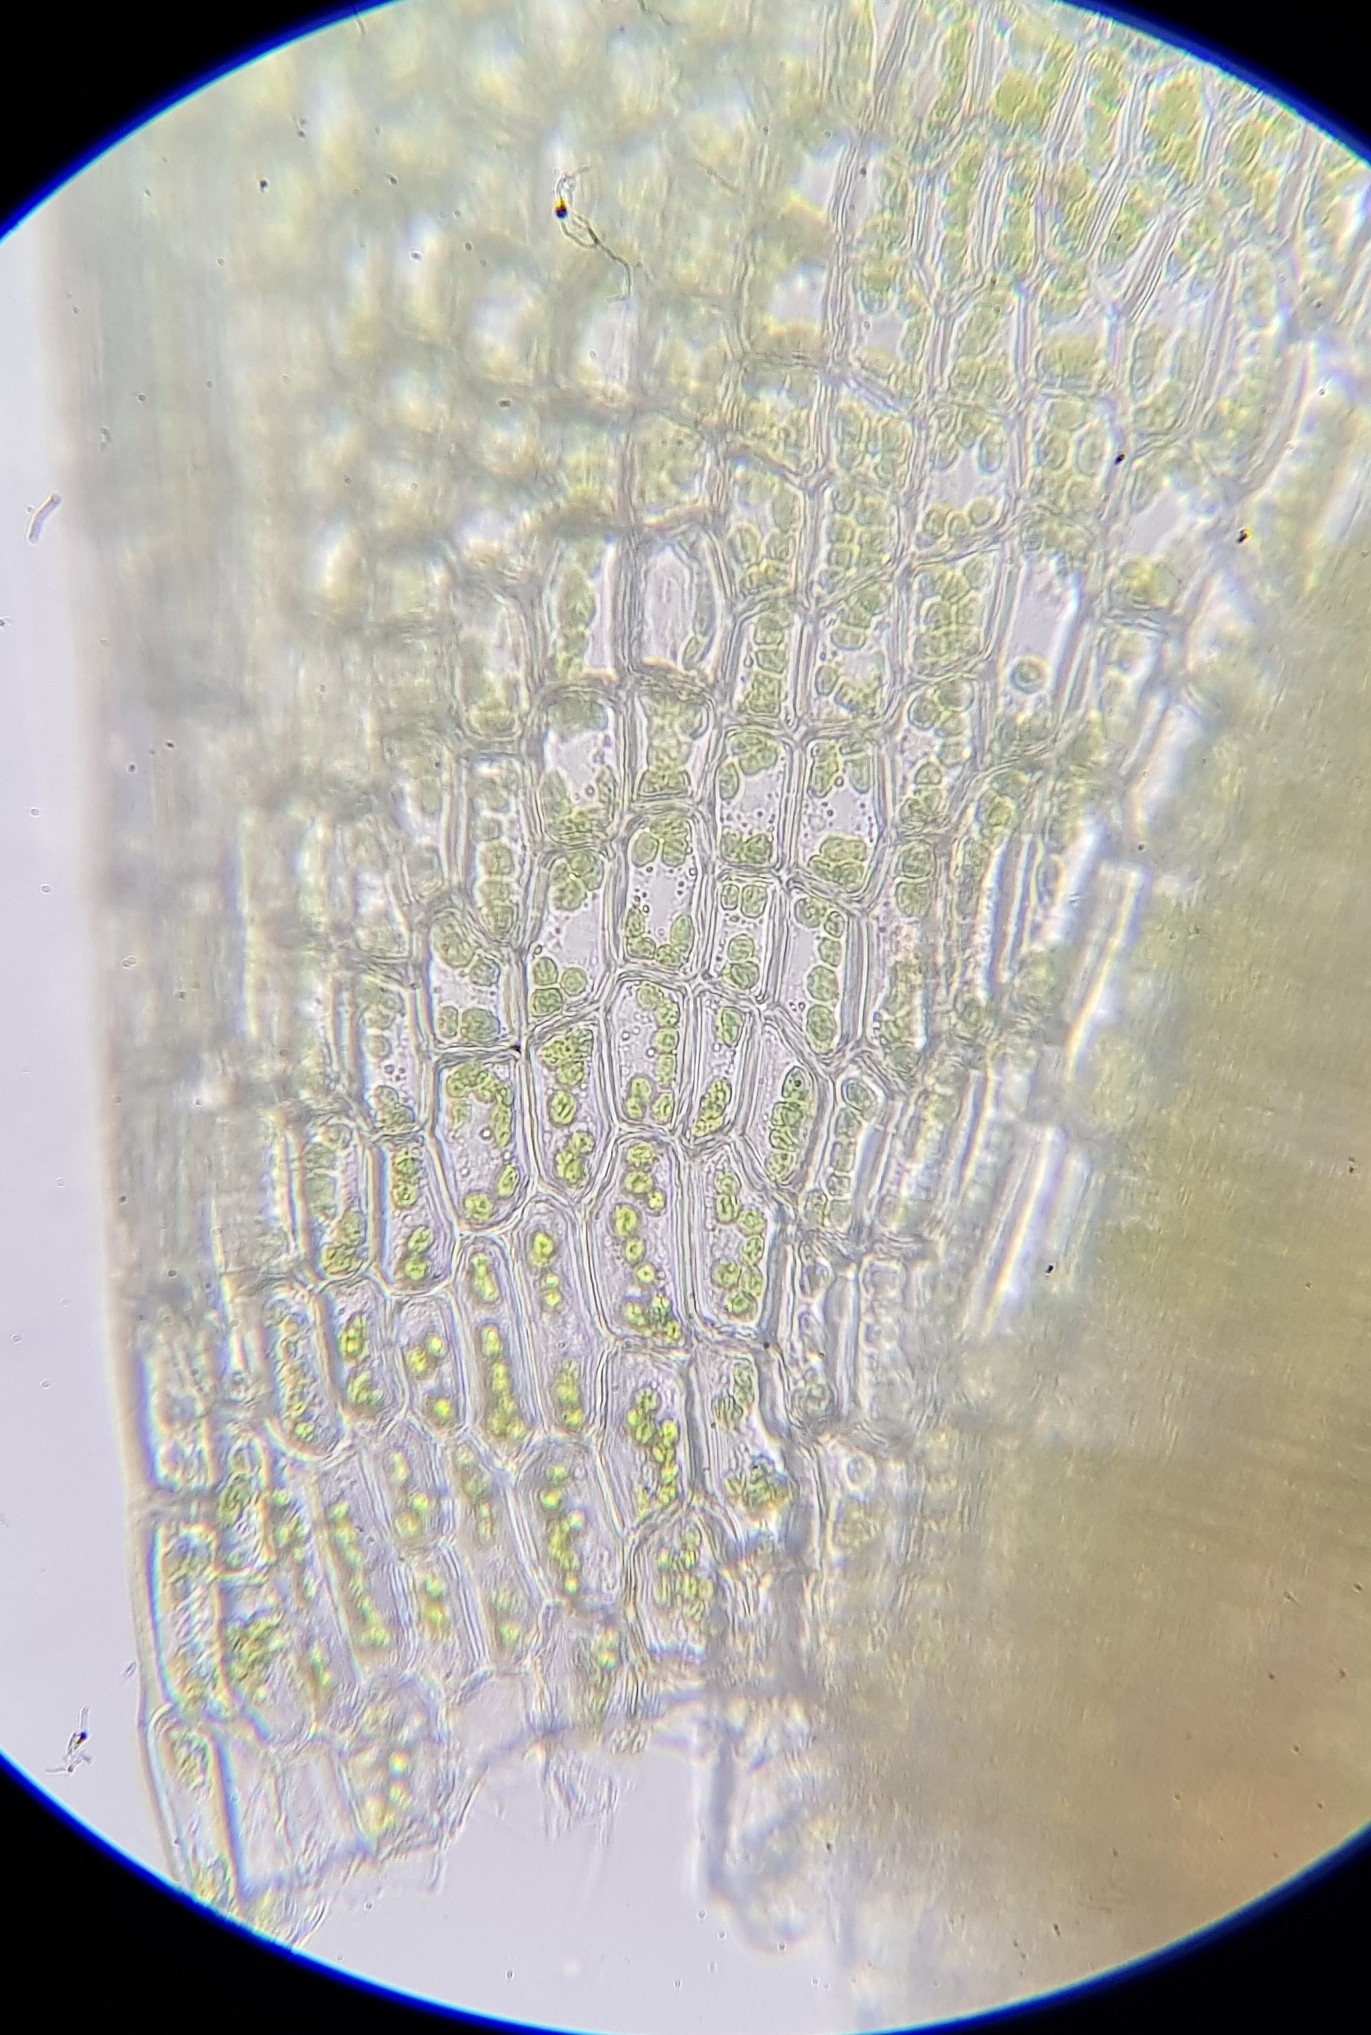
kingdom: Plantae
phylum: Bryophyta
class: Bryopsida
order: Bryales
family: Mniaceae
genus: Mnium
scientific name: Mnium hornum
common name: Swan's-neck leafy moss
